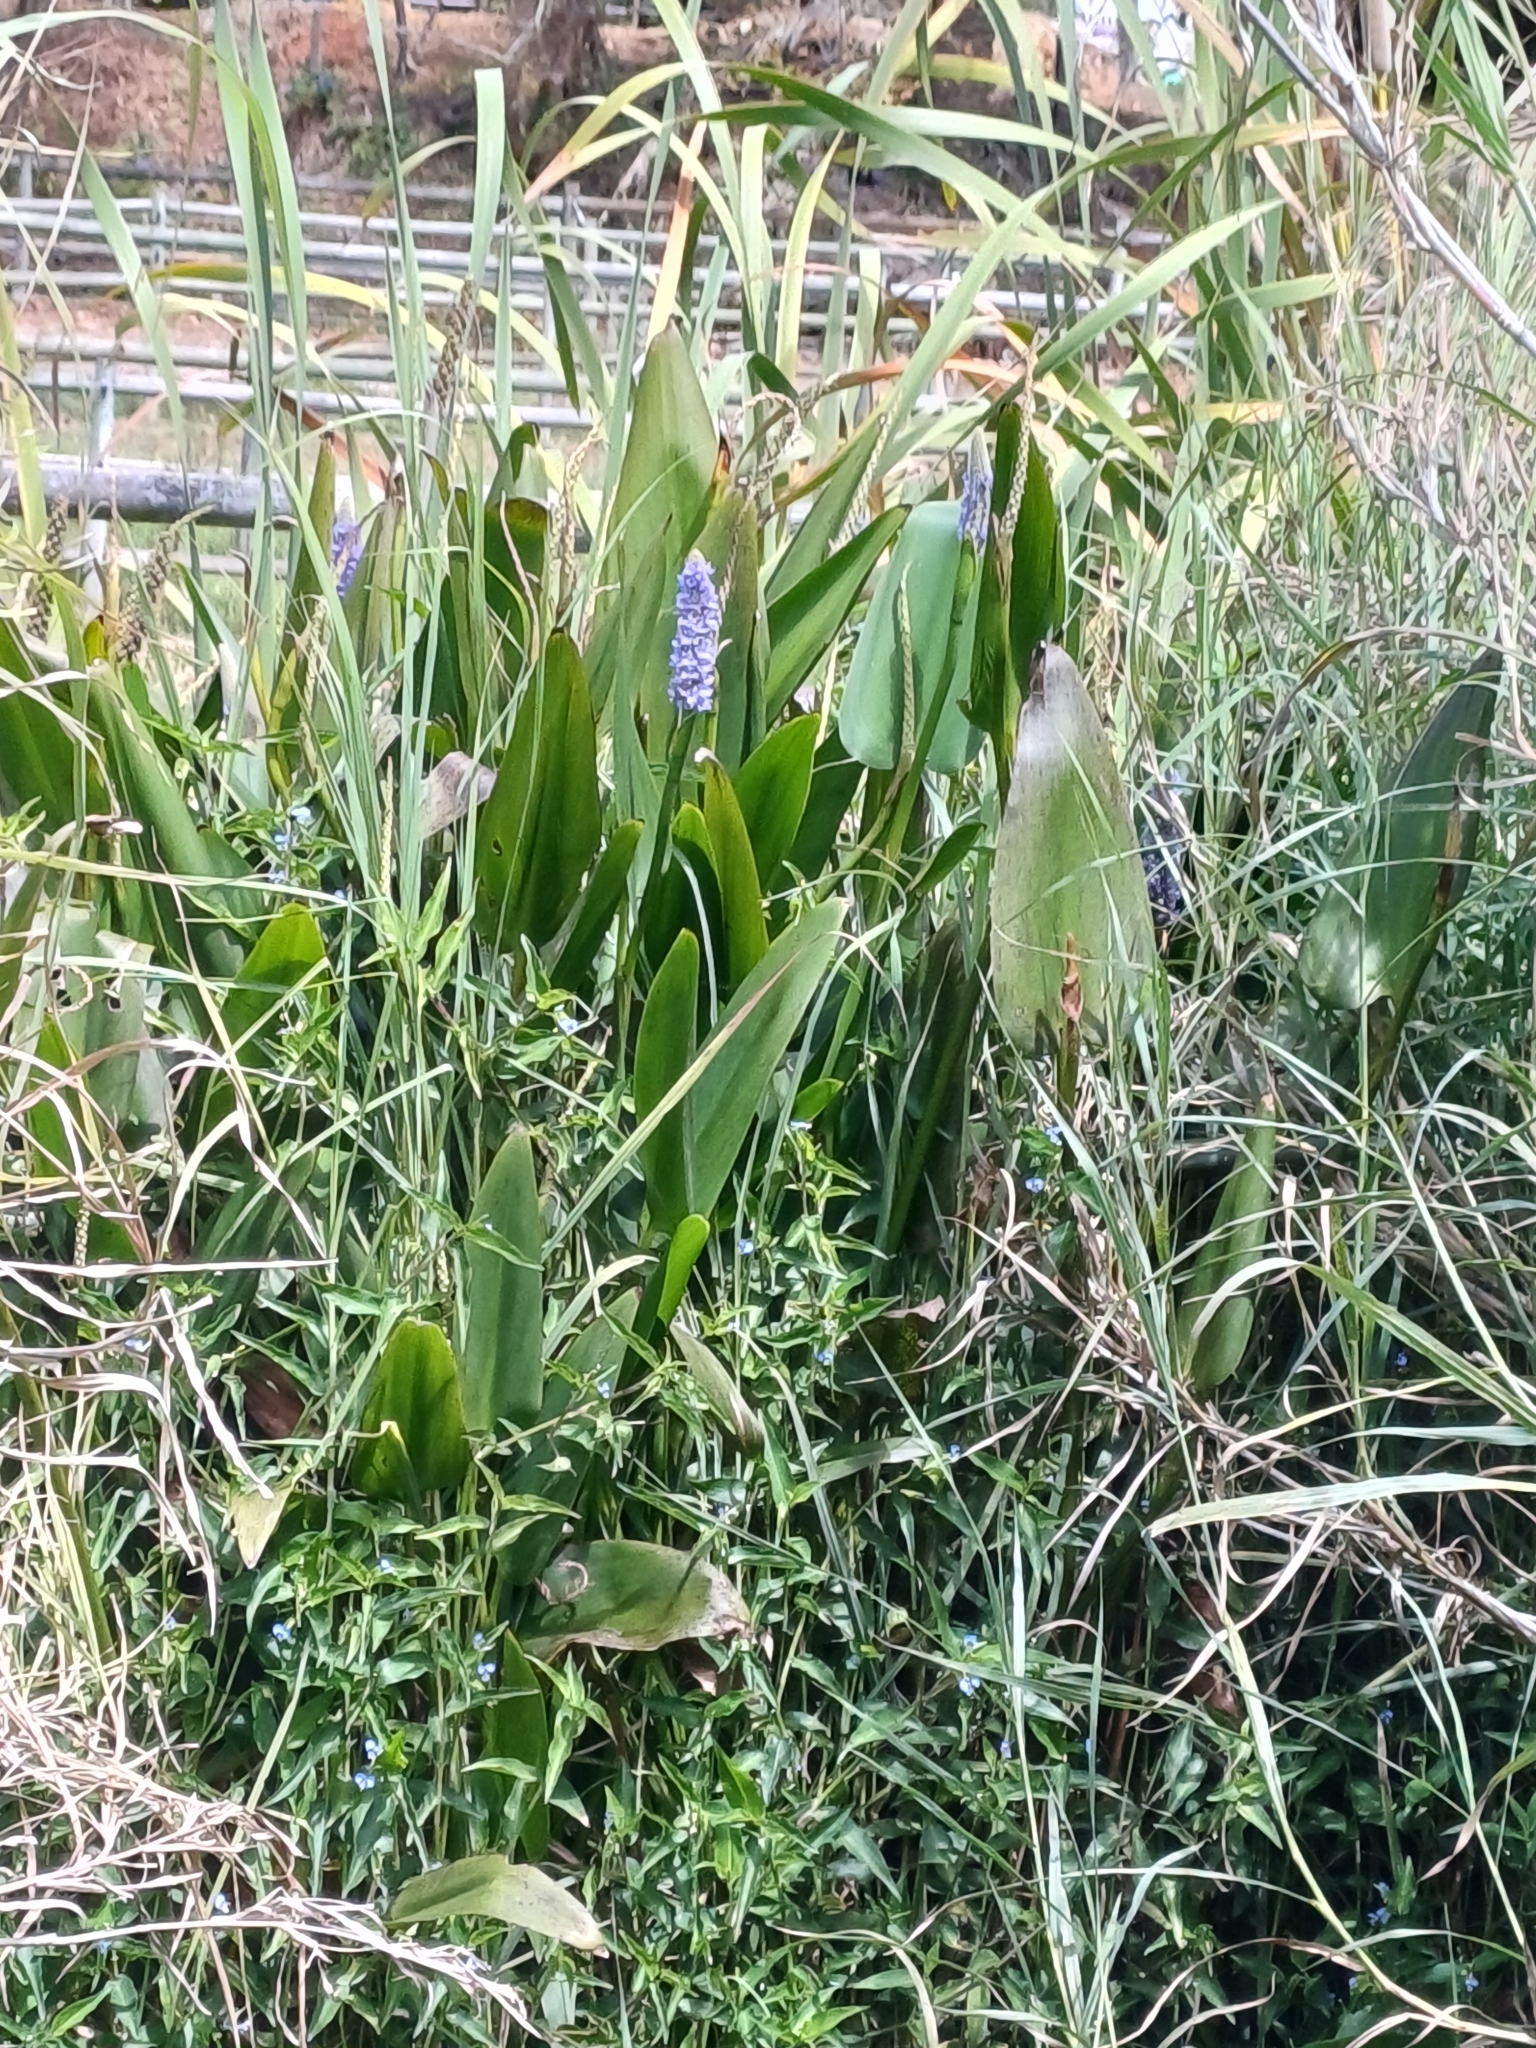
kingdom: Plantae
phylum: Tracheophyta
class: Liliopsida
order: Commelinales
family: Pontederiaceae
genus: Pontederia
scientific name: Pontederia cordata
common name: Pickerelweed
